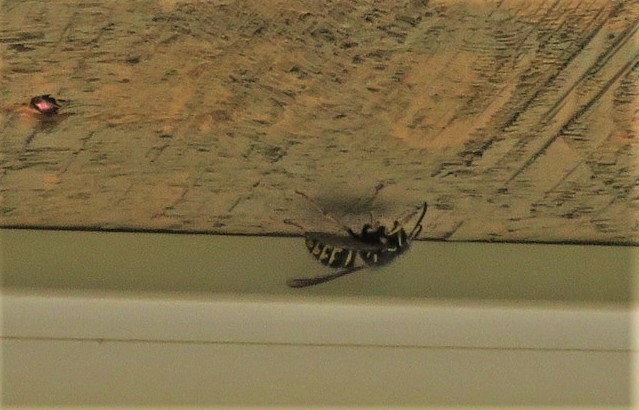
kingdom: Animalia
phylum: Arthropoda
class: Insecta
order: Hymenoptera
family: Vespidae
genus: Dolichovespula
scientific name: Dolichovespula arenaria
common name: Aerial yellowjacket
